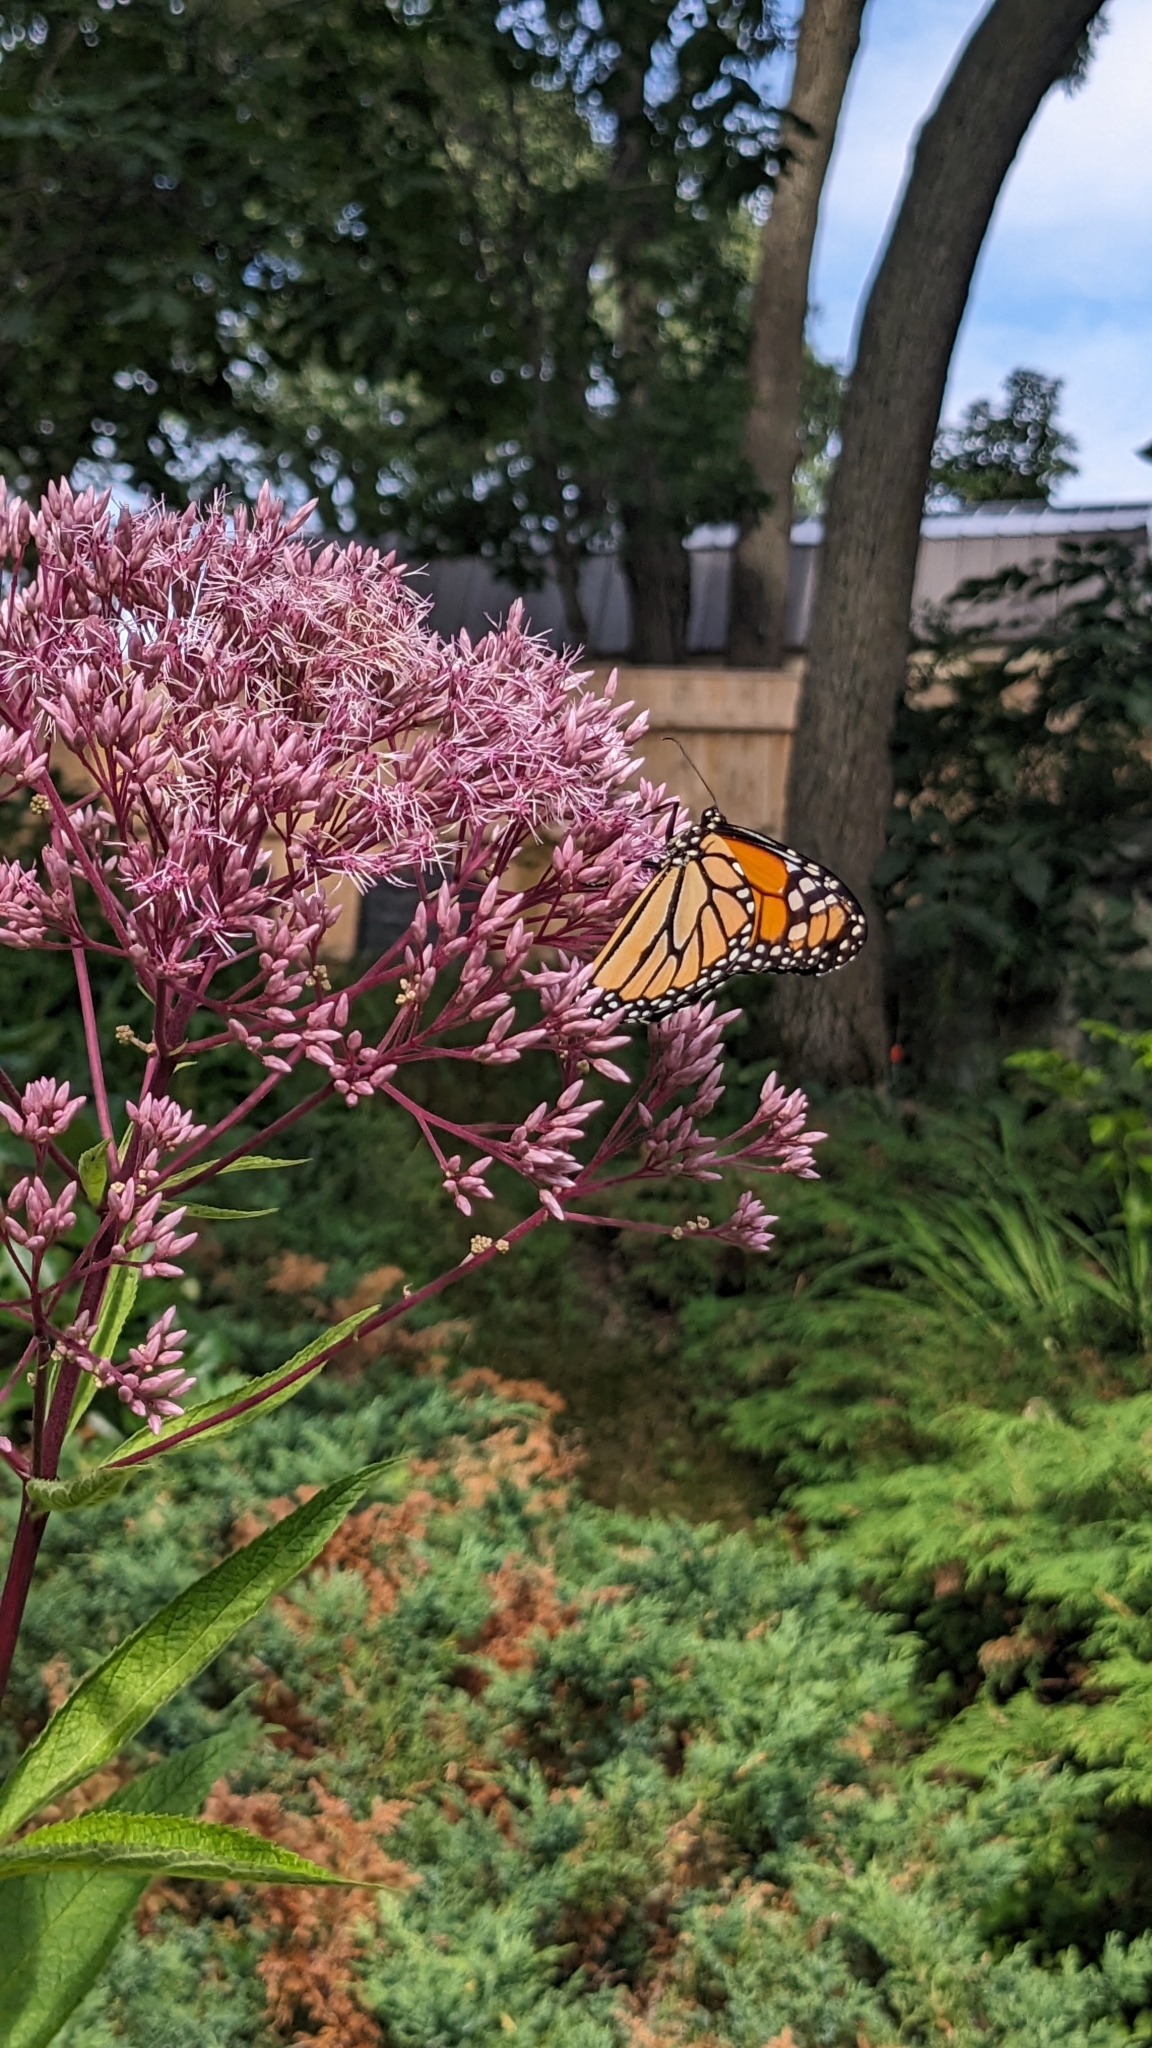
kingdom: Animalia
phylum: Arthropoda
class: Insecta
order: Lepidoptera
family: Nymphalidae
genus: Danaus
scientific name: Danaus plexippus
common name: Monarch
